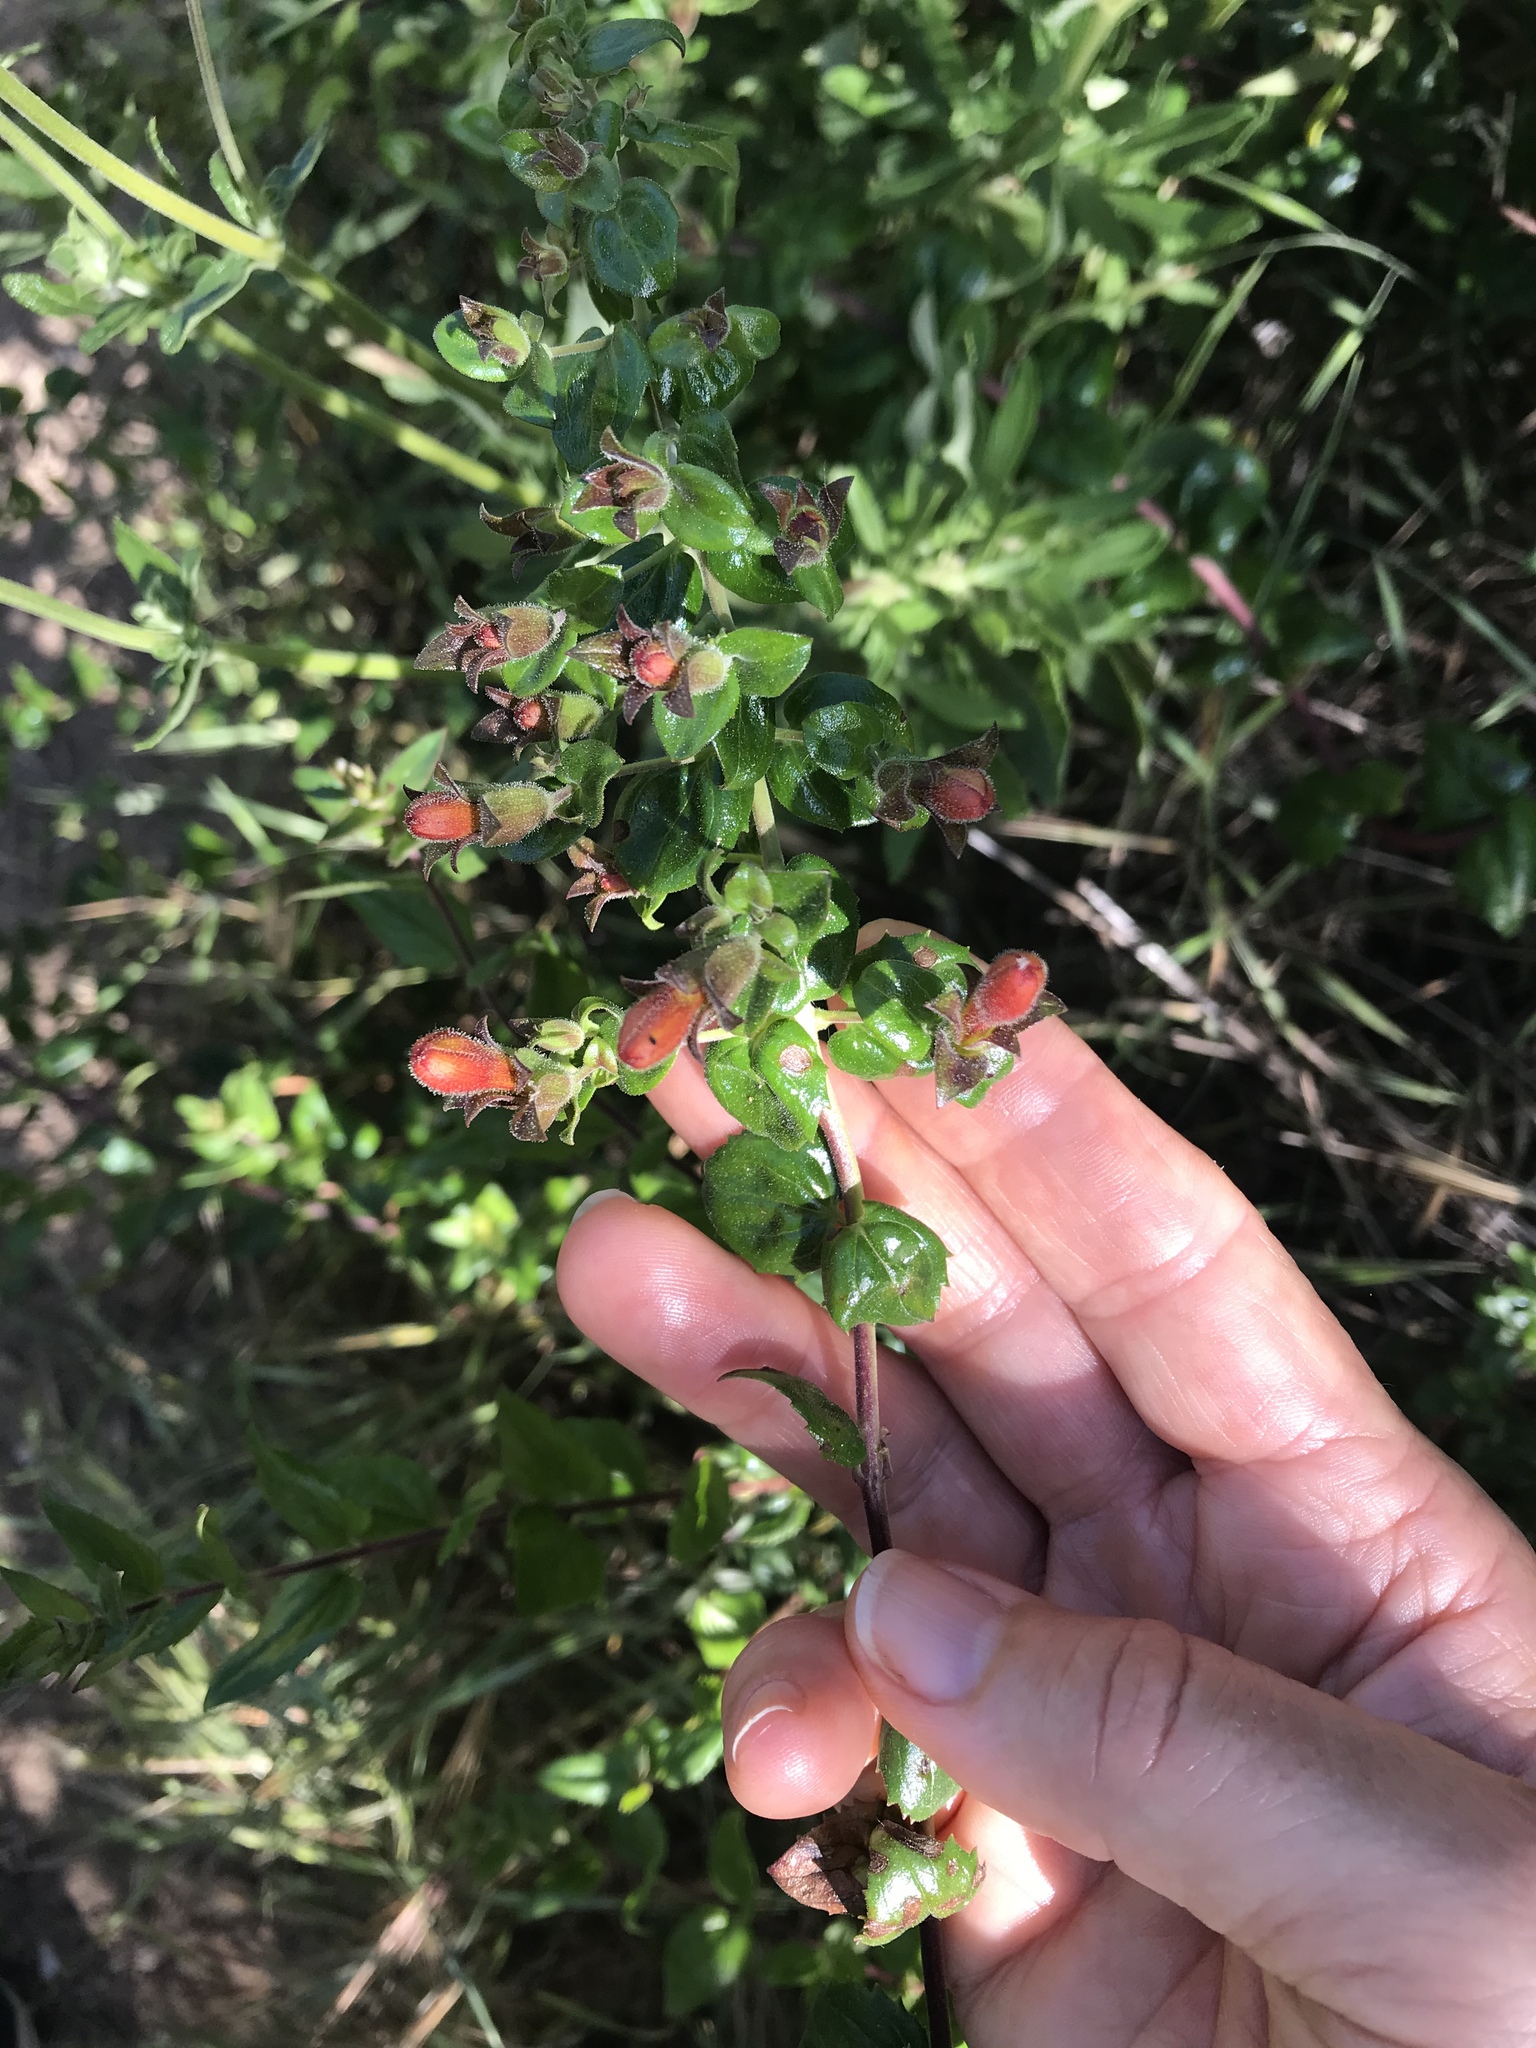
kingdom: Plantae
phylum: Tracheophyta
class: Magnoliopsida
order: Lamiales
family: Plantaginaceae
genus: Keckiella
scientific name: Keckiella cordifolia
